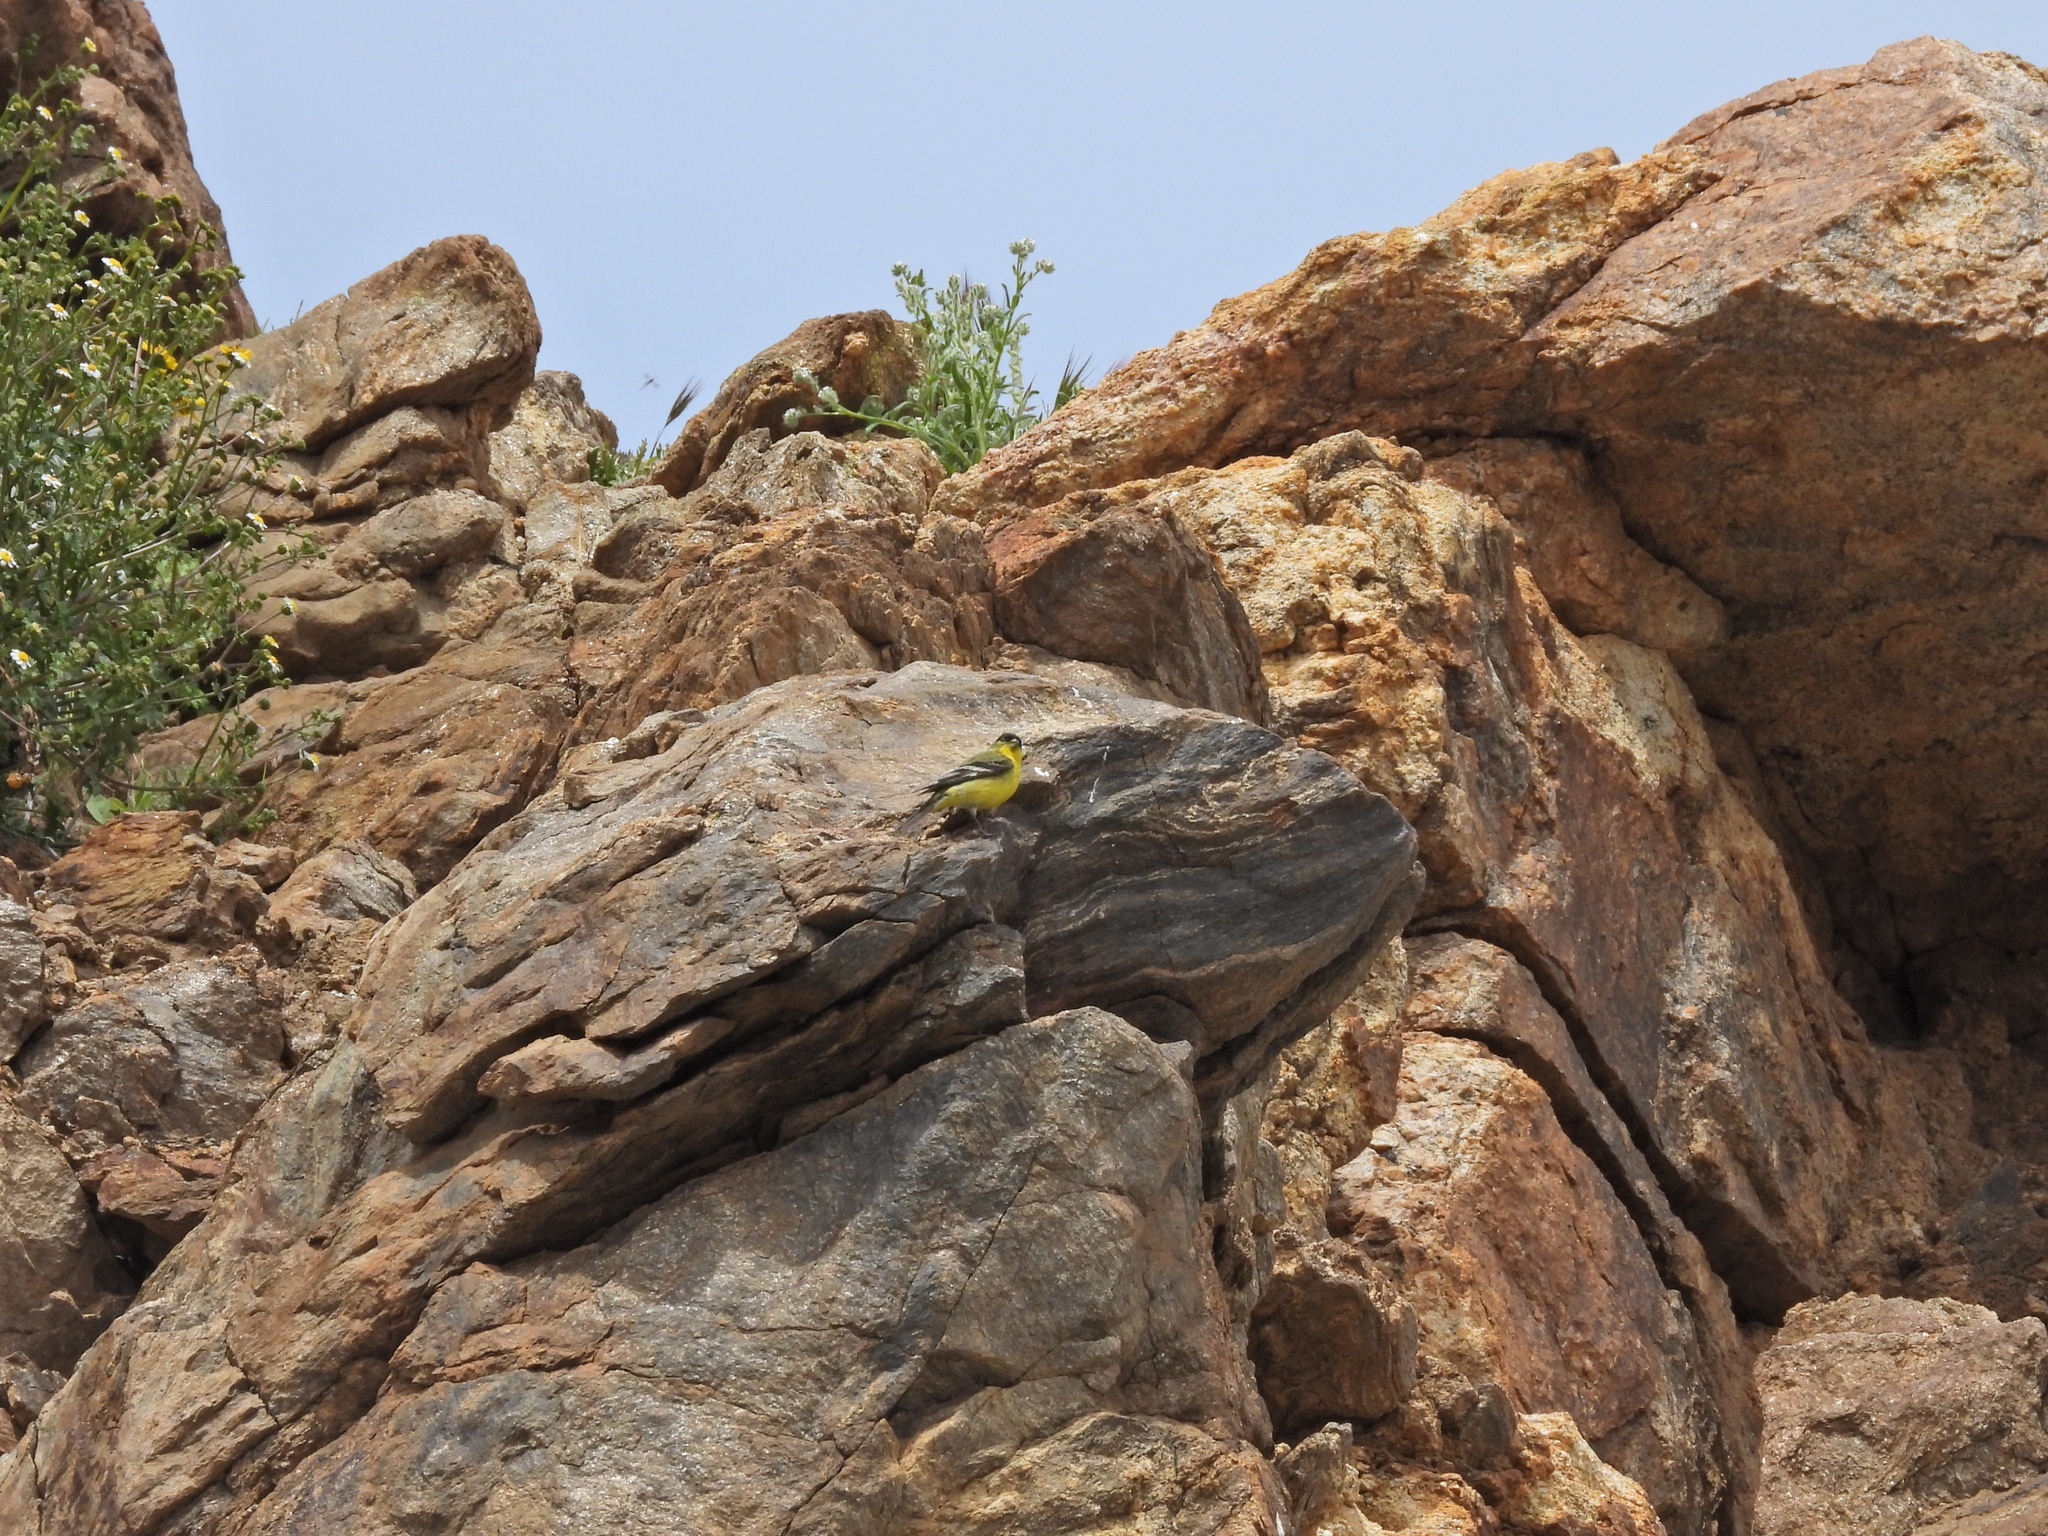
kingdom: Animalia
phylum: Chordata
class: Aves
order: Passeriformes
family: Fringillidae
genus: Spinus
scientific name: Spinus psaltria
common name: Lesser goldfinch
